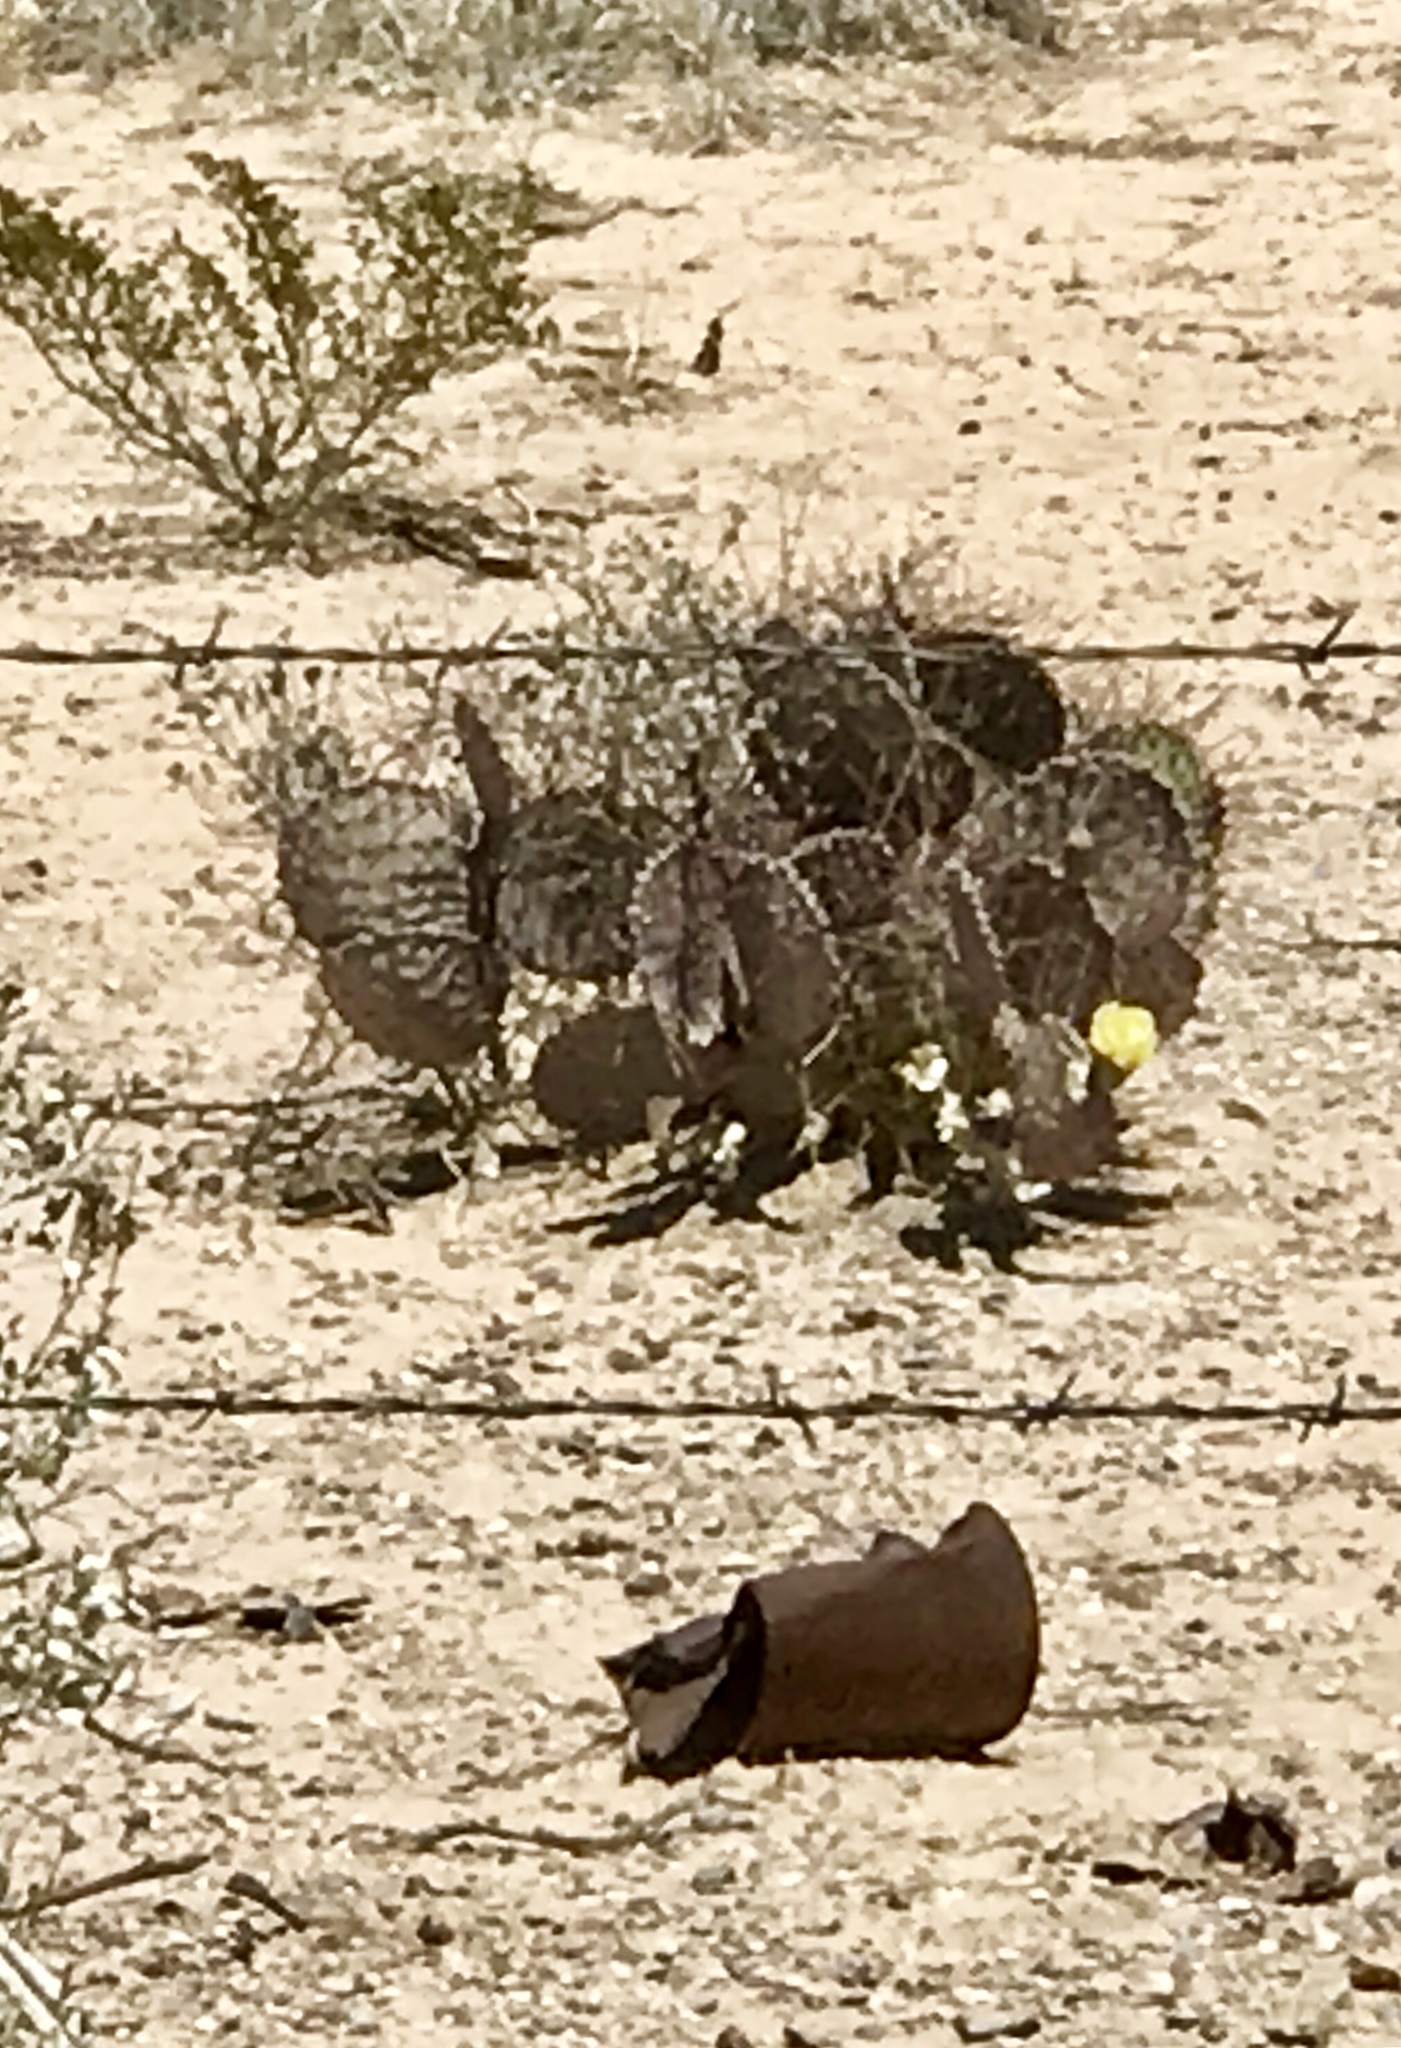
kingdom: Plantae
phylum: Tracheophyta
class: Magnoliopsida
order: Caryophyllales
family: Cactaceae
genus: Opuntia
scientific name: Opuntia macrocentra
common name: Purple prickly-pear
